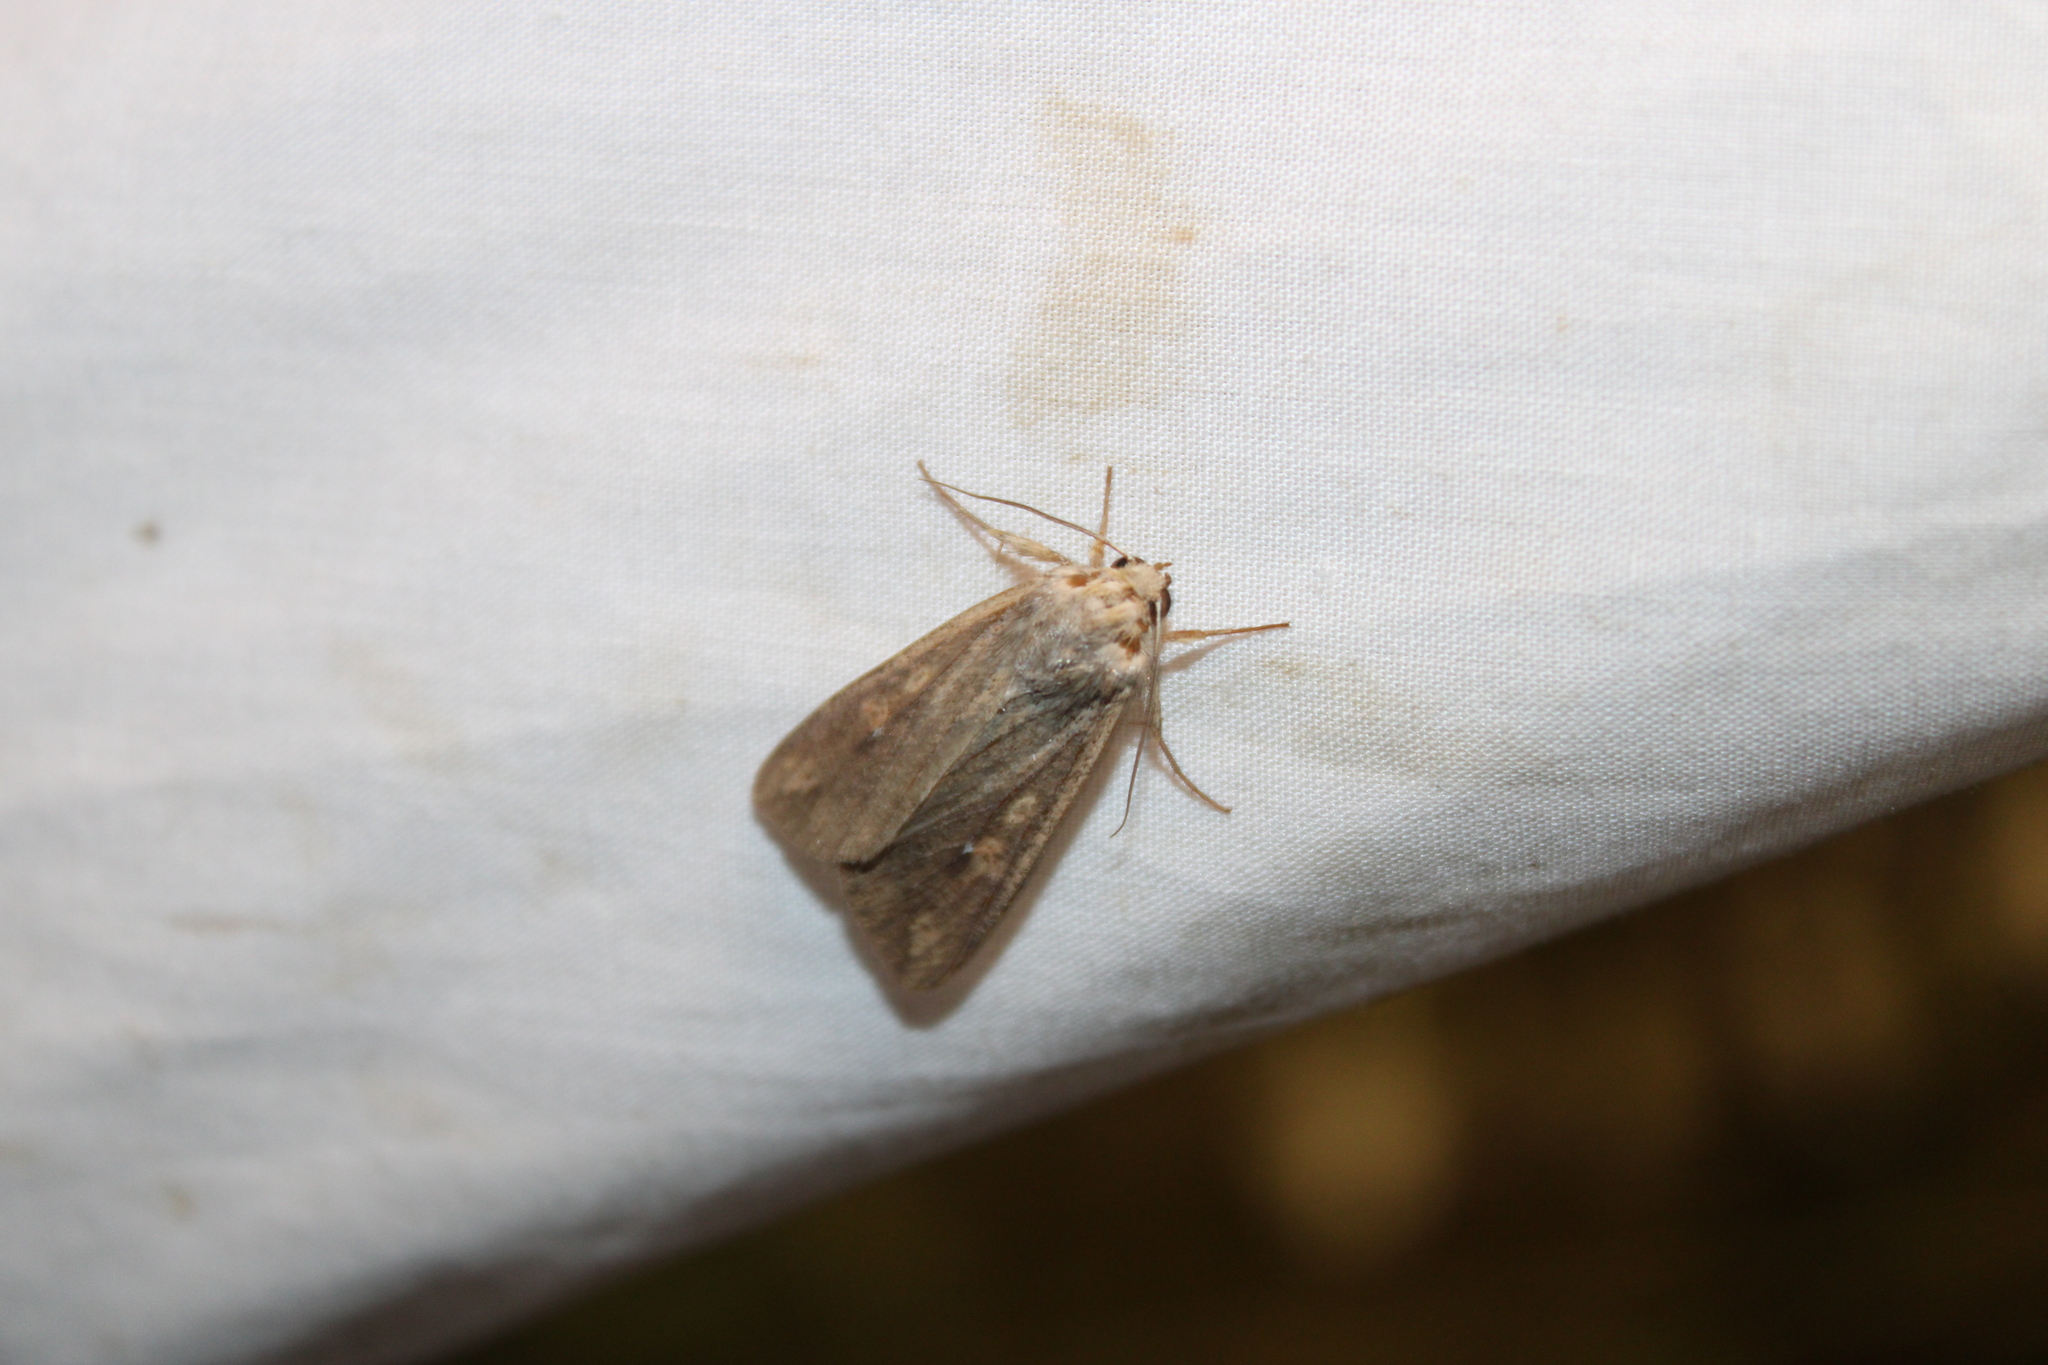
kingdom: Animalia
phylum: Arthropoda
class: Insecta
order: Lepidoptera
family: Noctuidae
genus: Mythimna
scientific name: Mythimna unipuncta
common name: White-speck
